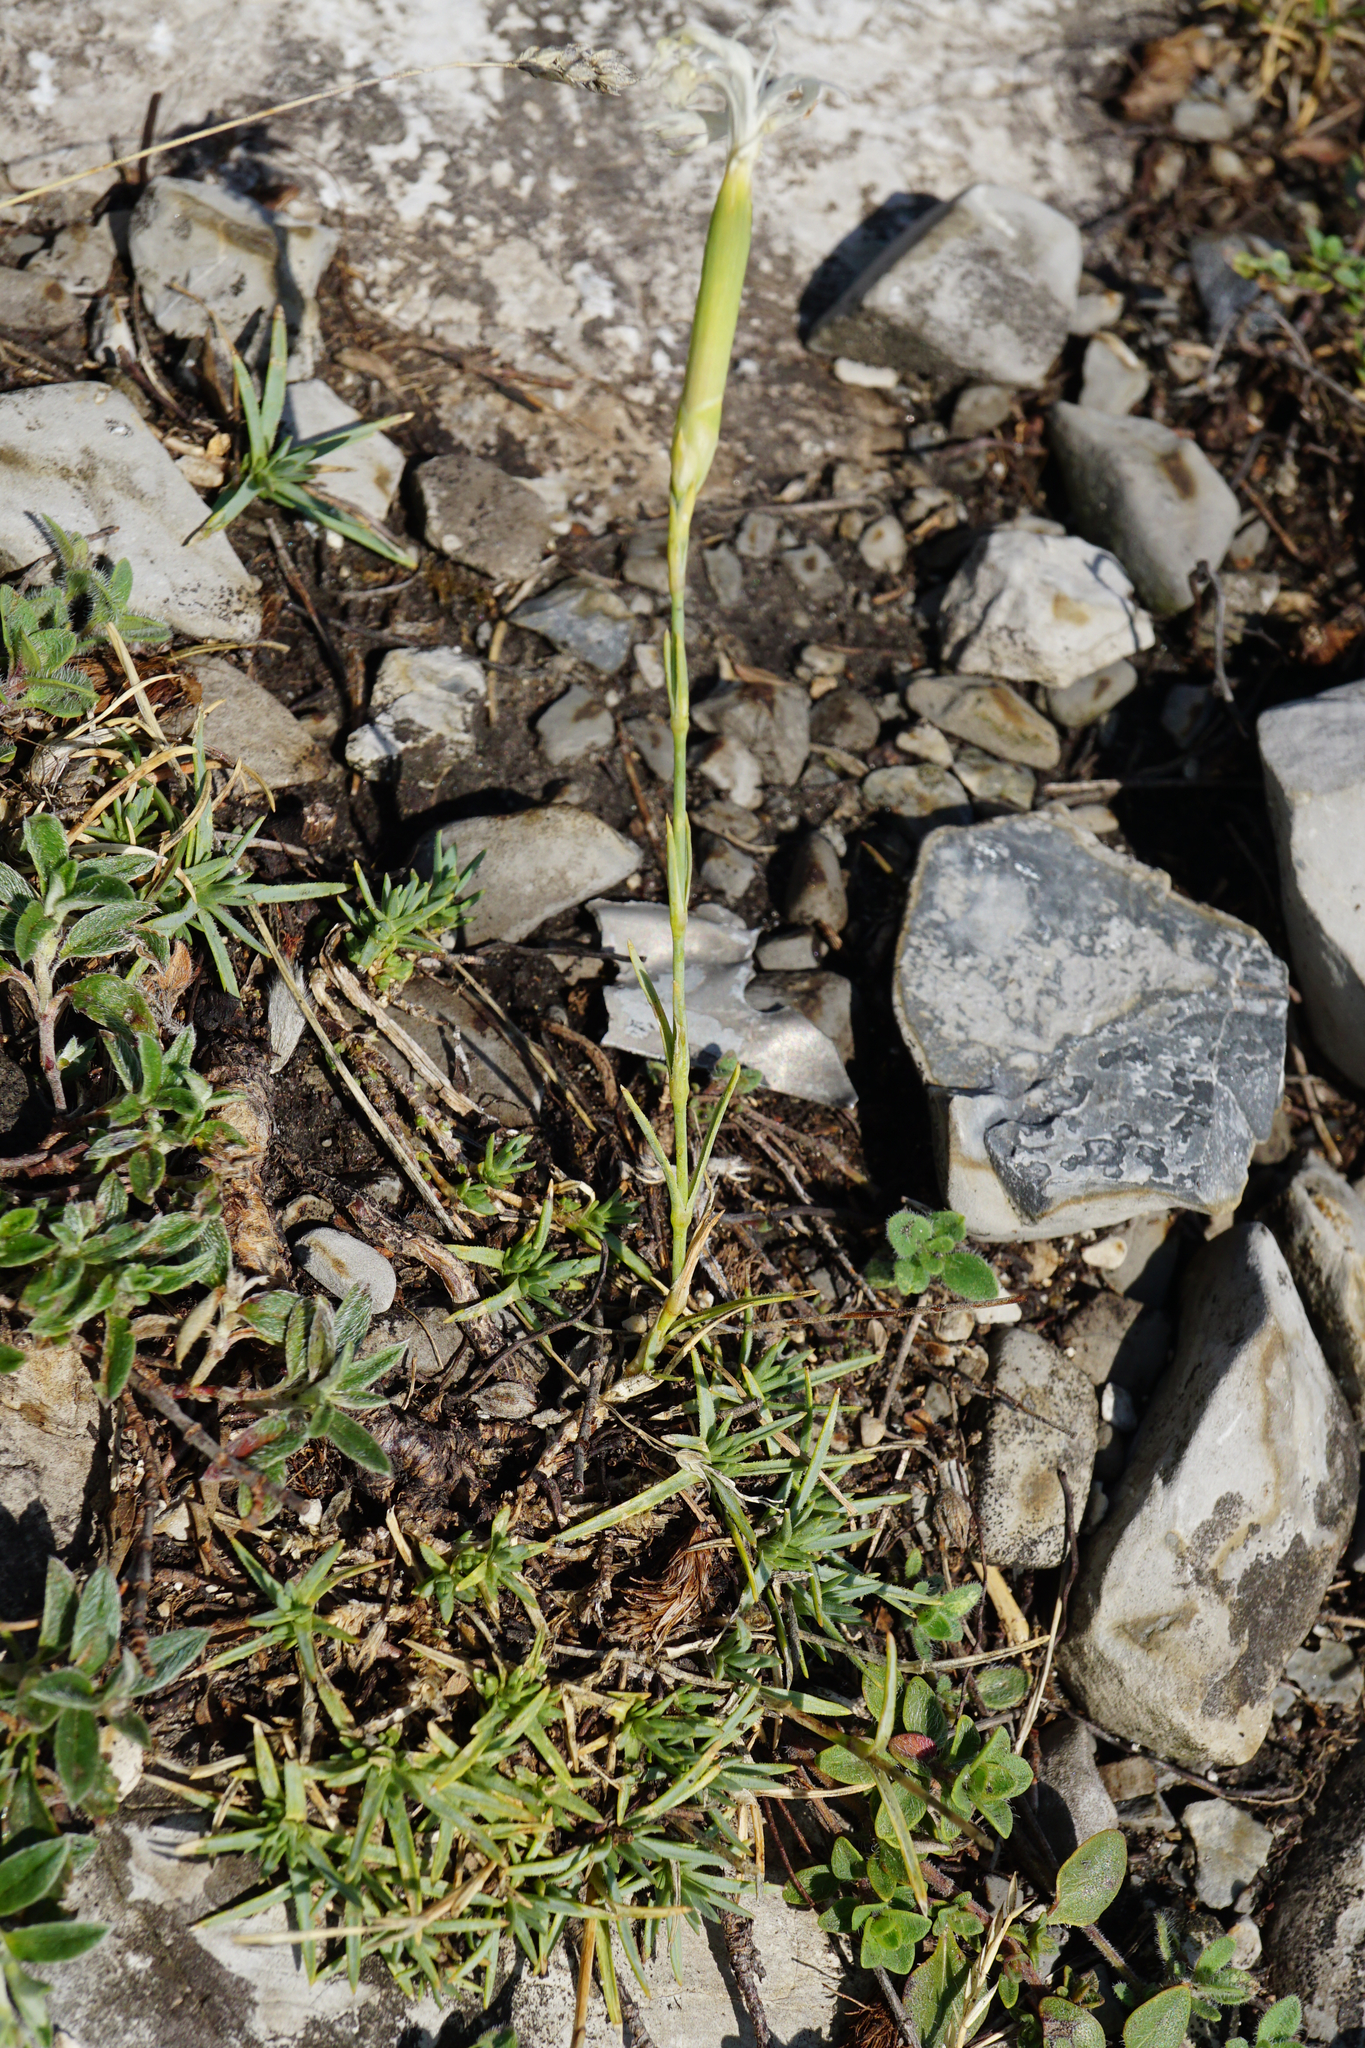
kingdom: Plantae
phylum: Tracheophyta
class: Magnoliopsida
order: Caryophyllales
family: Caryophyllaceae
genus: Dianthus
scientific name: Dianthus praecox
